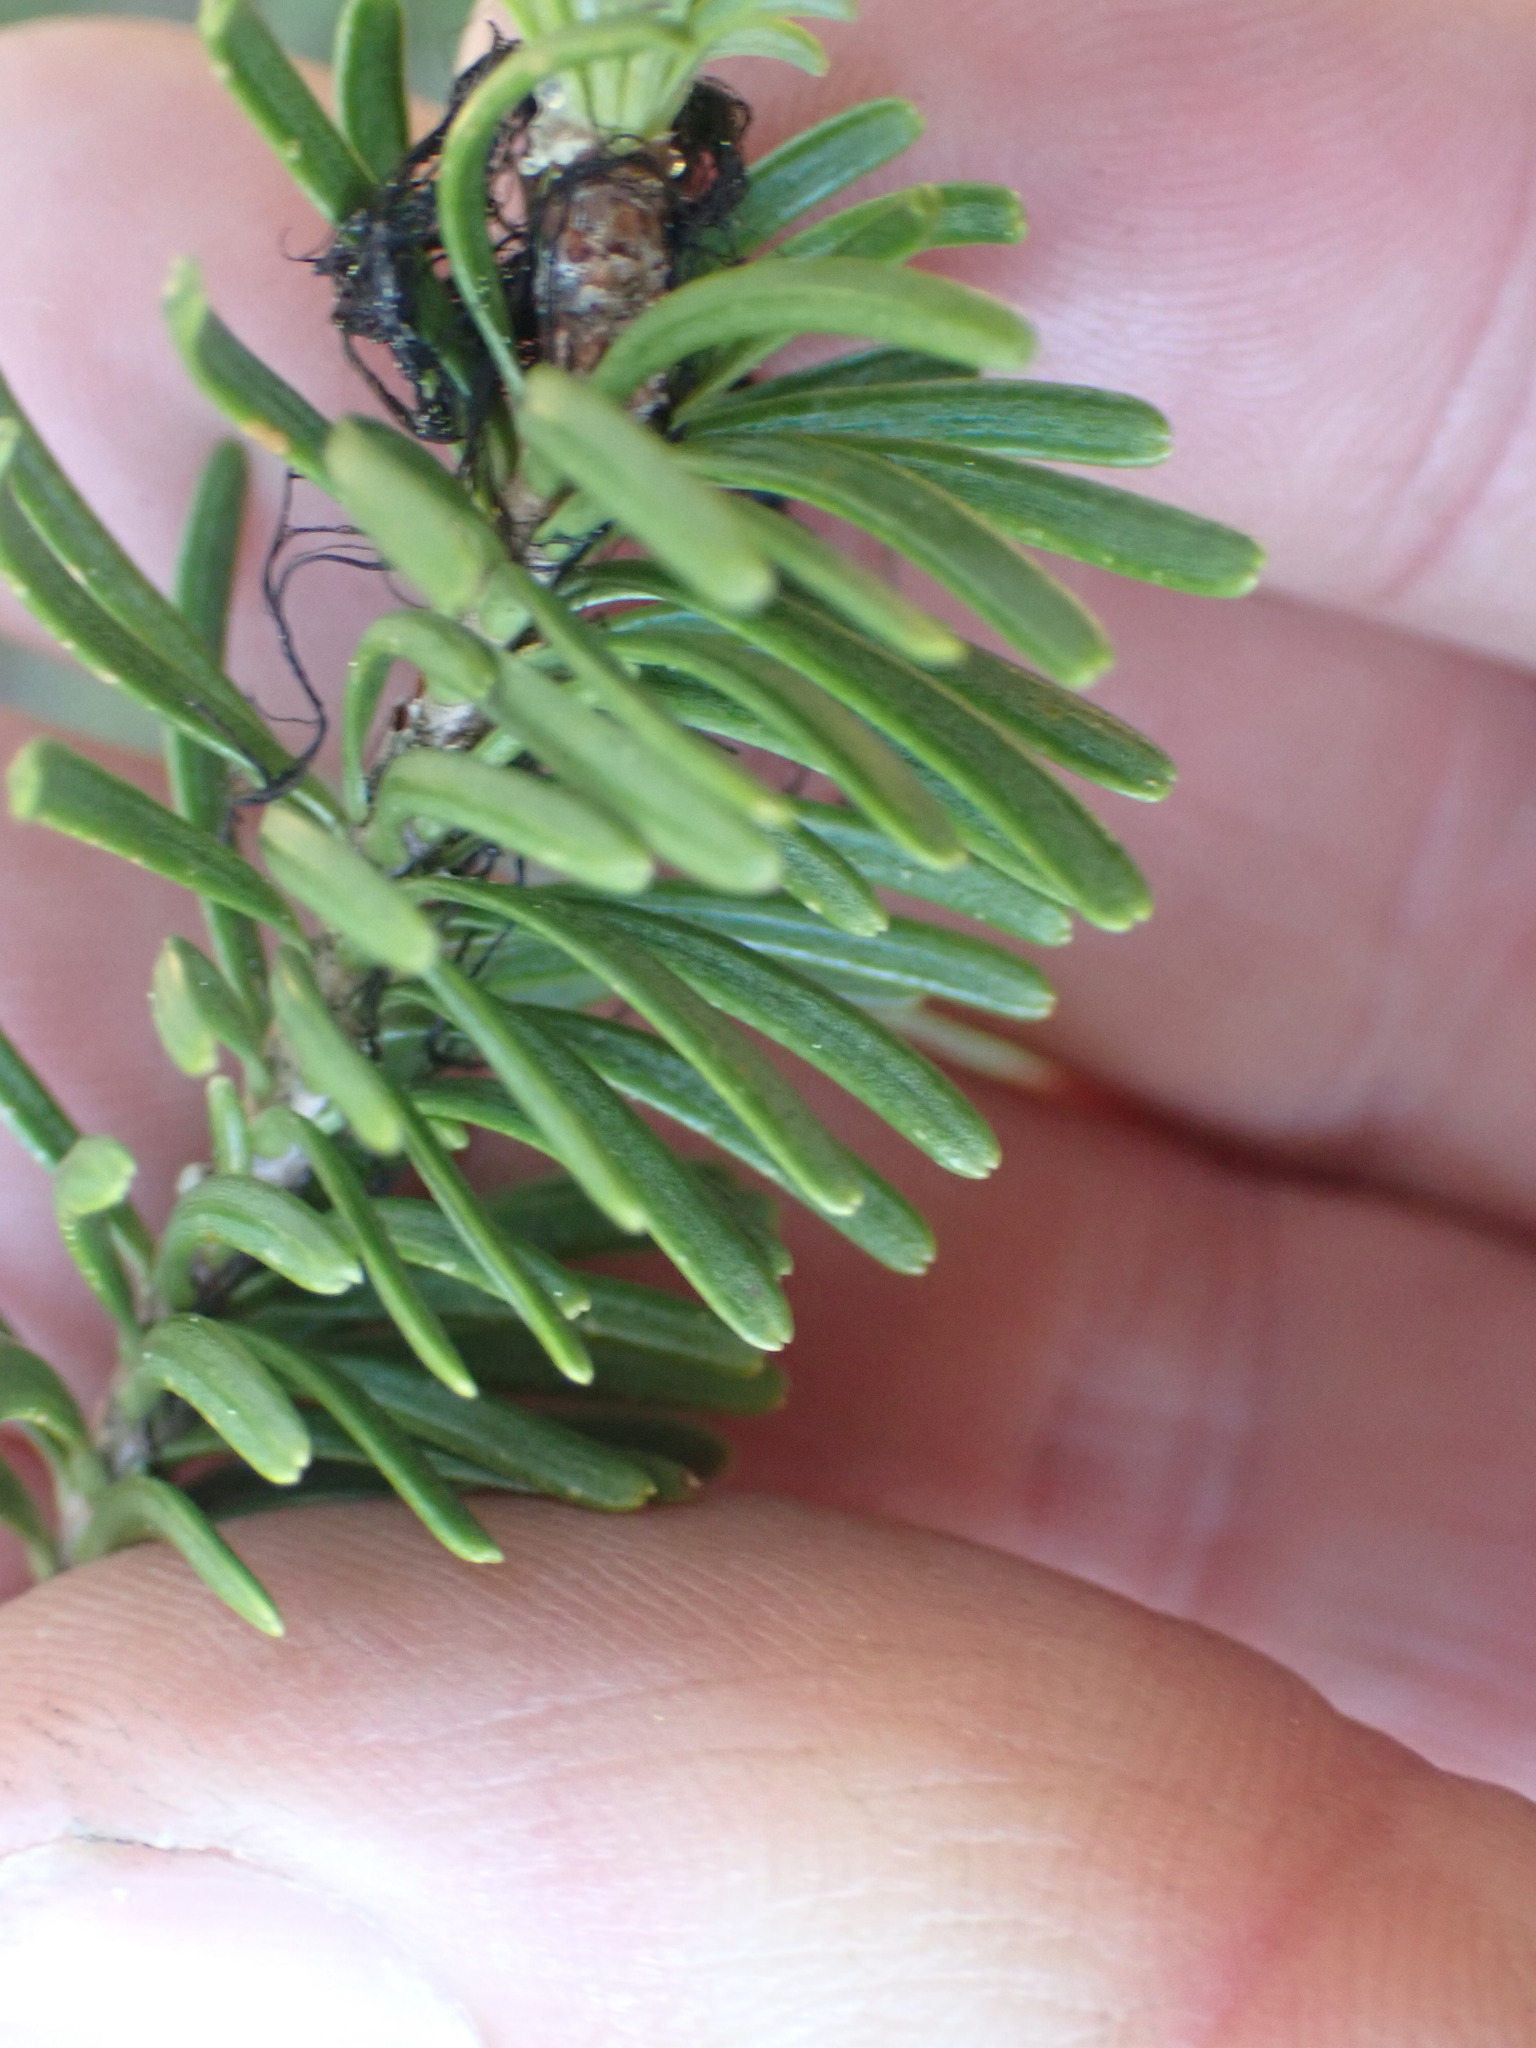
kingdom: Plantae
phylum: Tracheophyta
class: Pinopsida
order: Pinales
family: Pinaceae
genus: Abies
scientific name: Abies lasiocarpa
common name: Subalpine fir
